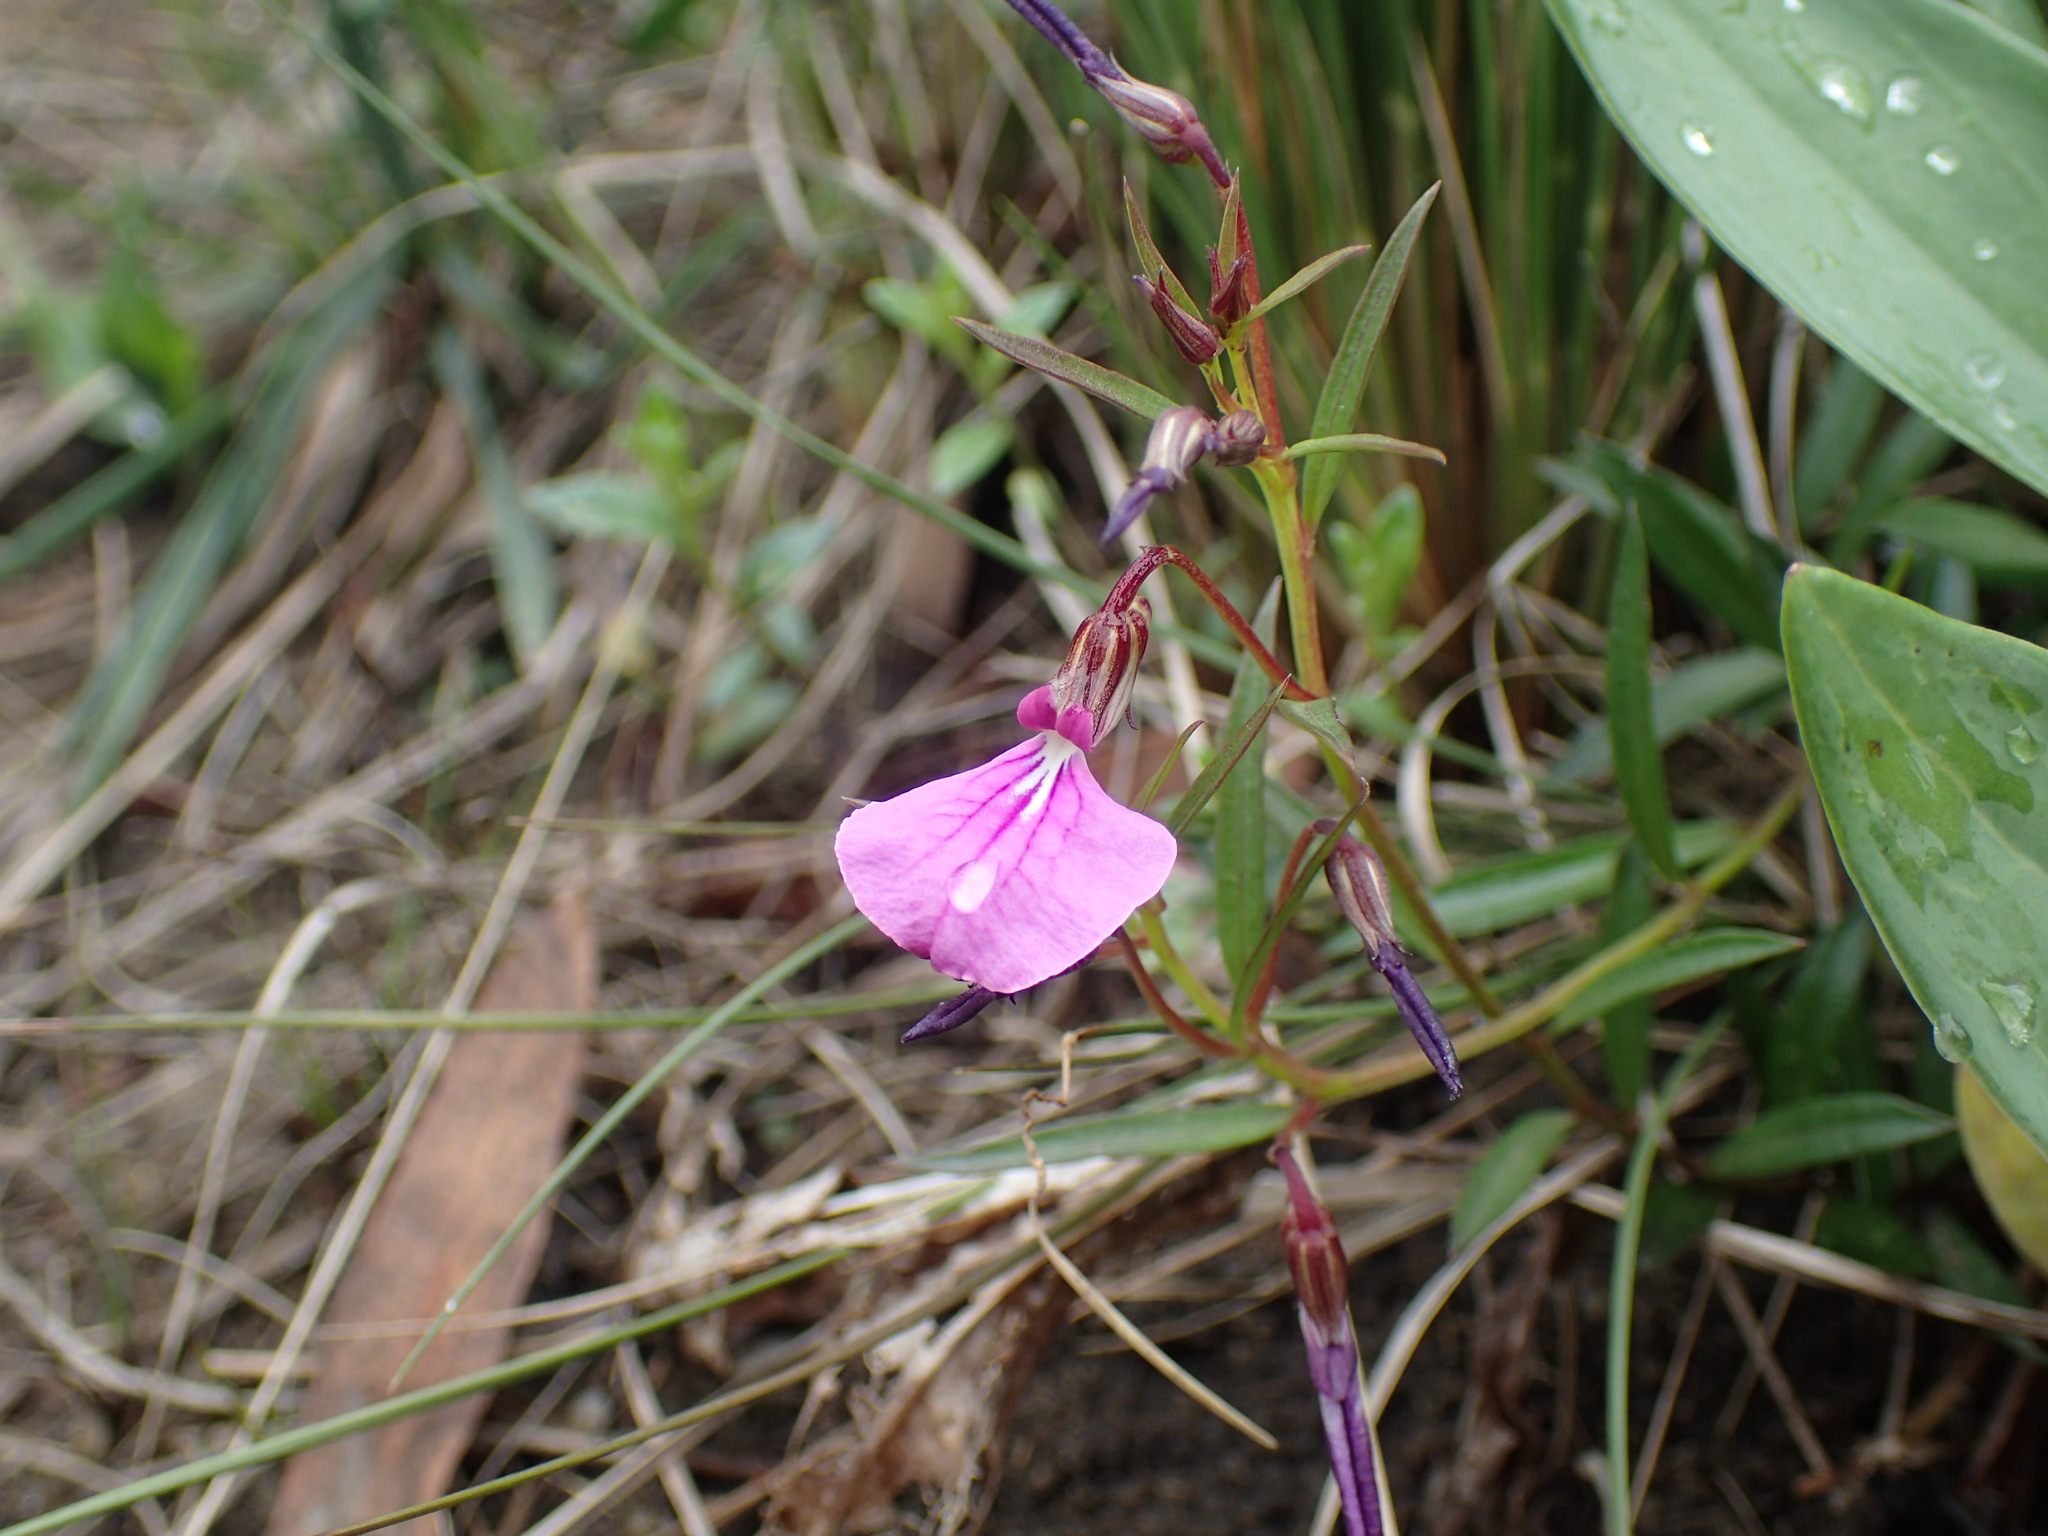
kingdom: Plantae
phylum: Tracheophyta
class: Magnoliopsida
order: Malpighiales
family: Violaceae
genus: Pigea
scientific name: Pigea enneasperma
